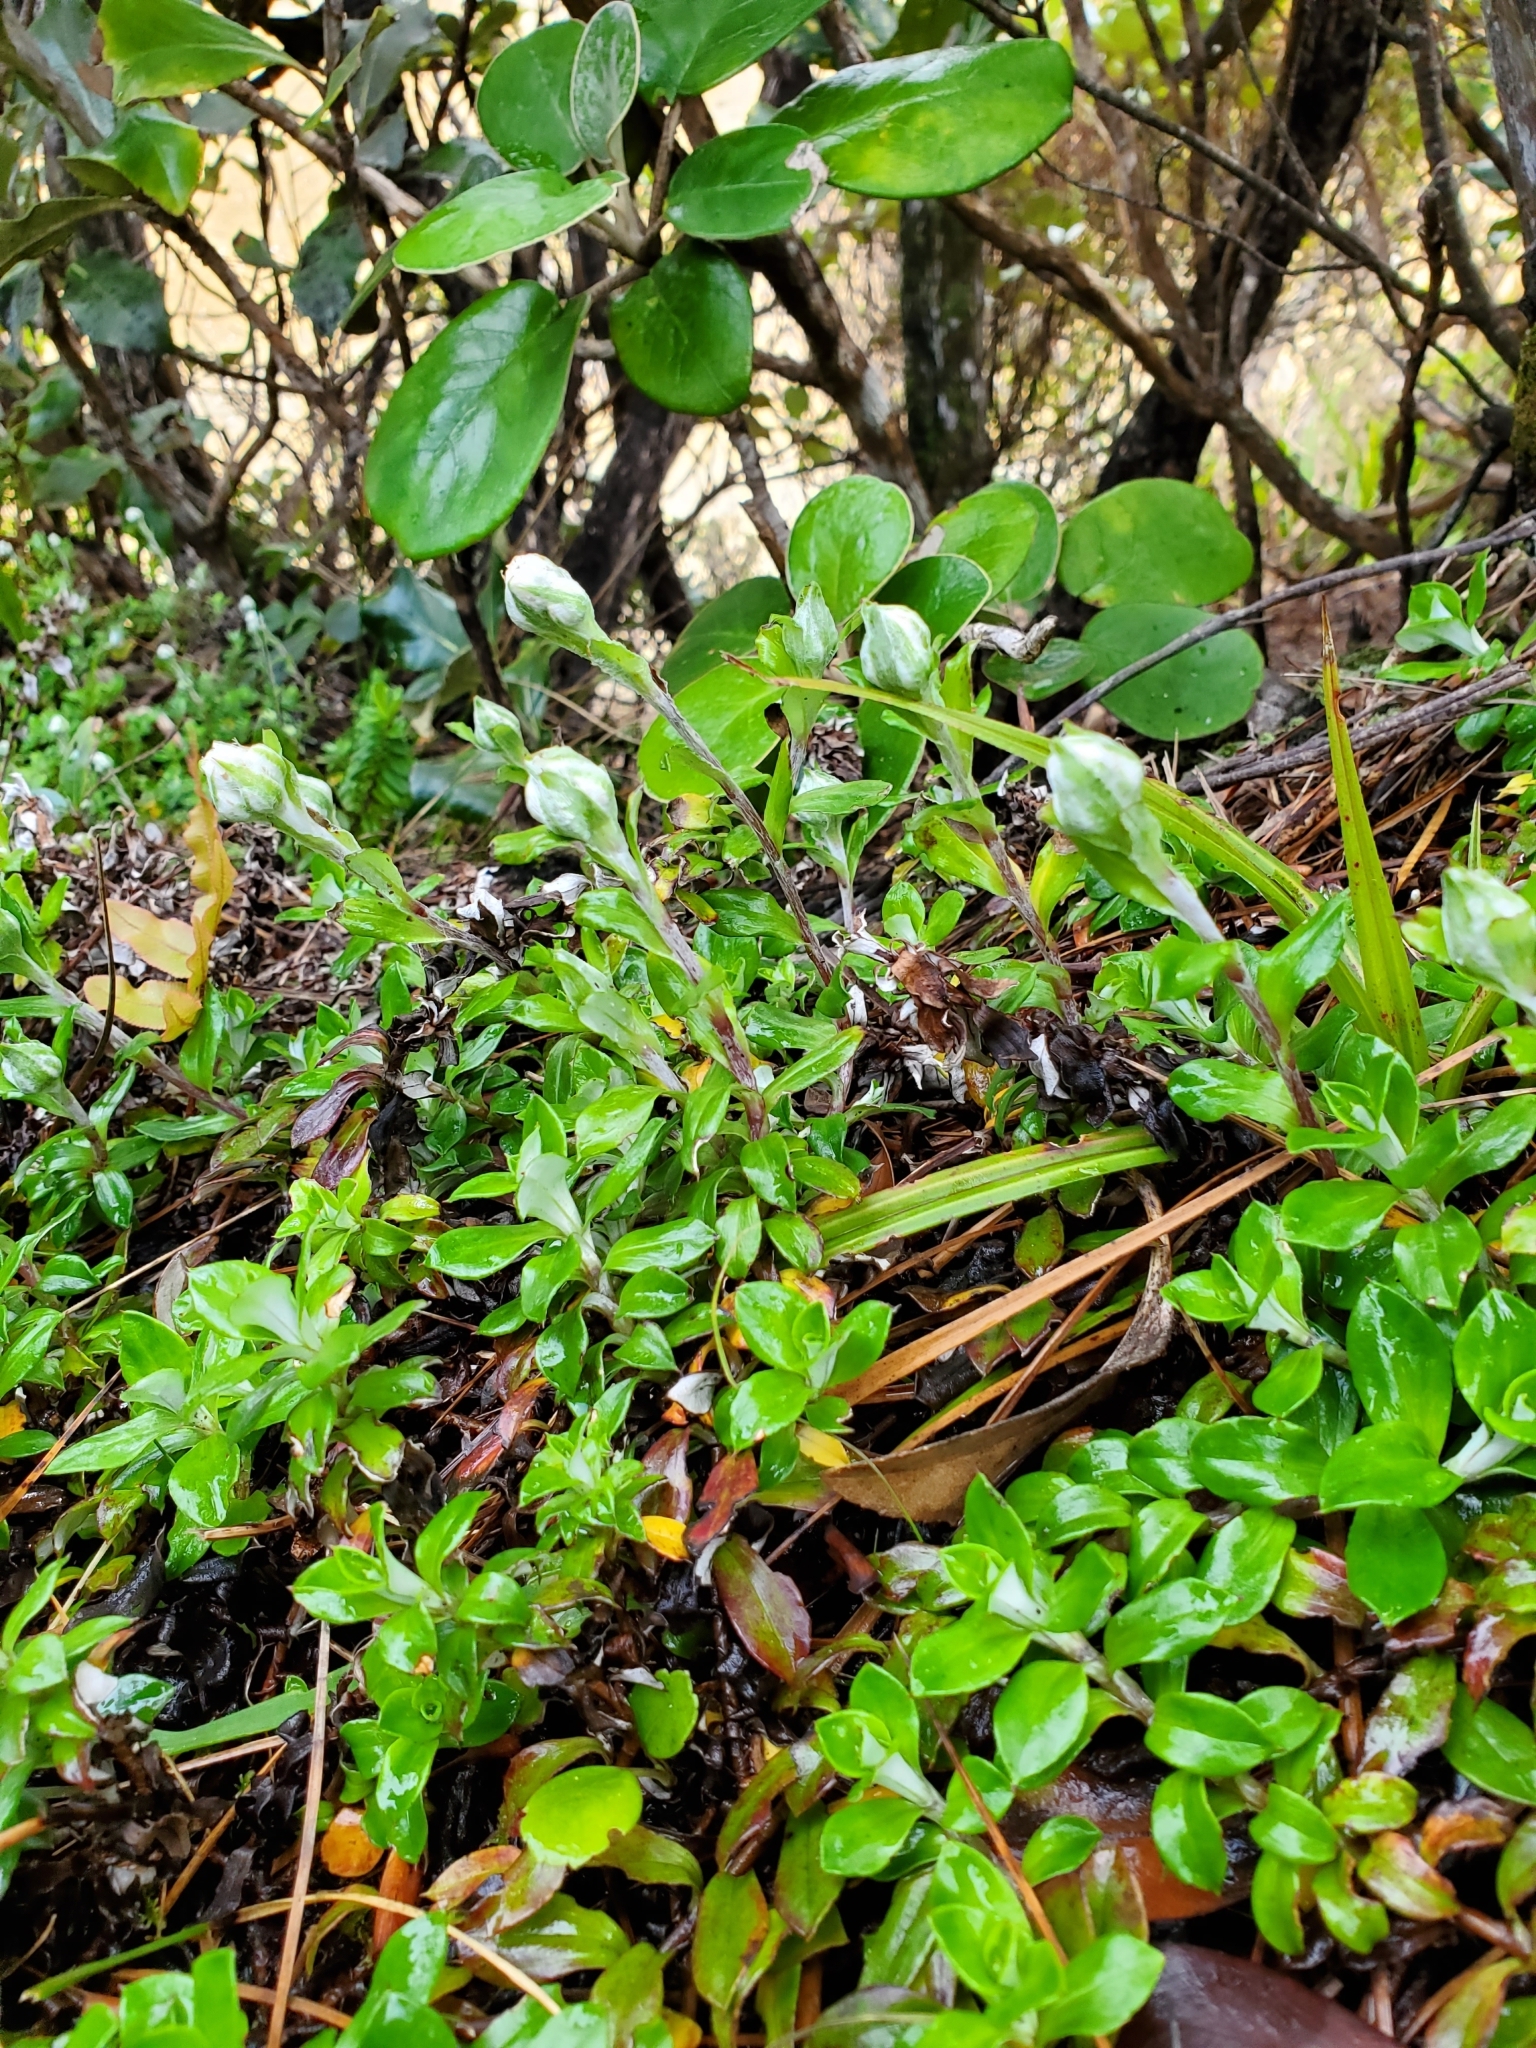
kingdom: Plantae
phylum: Tracheophyta
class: Magnoliopsida
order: Asterales
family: Asteraceae
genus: Anaphalioides
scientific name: Anaphalioides hookeri
